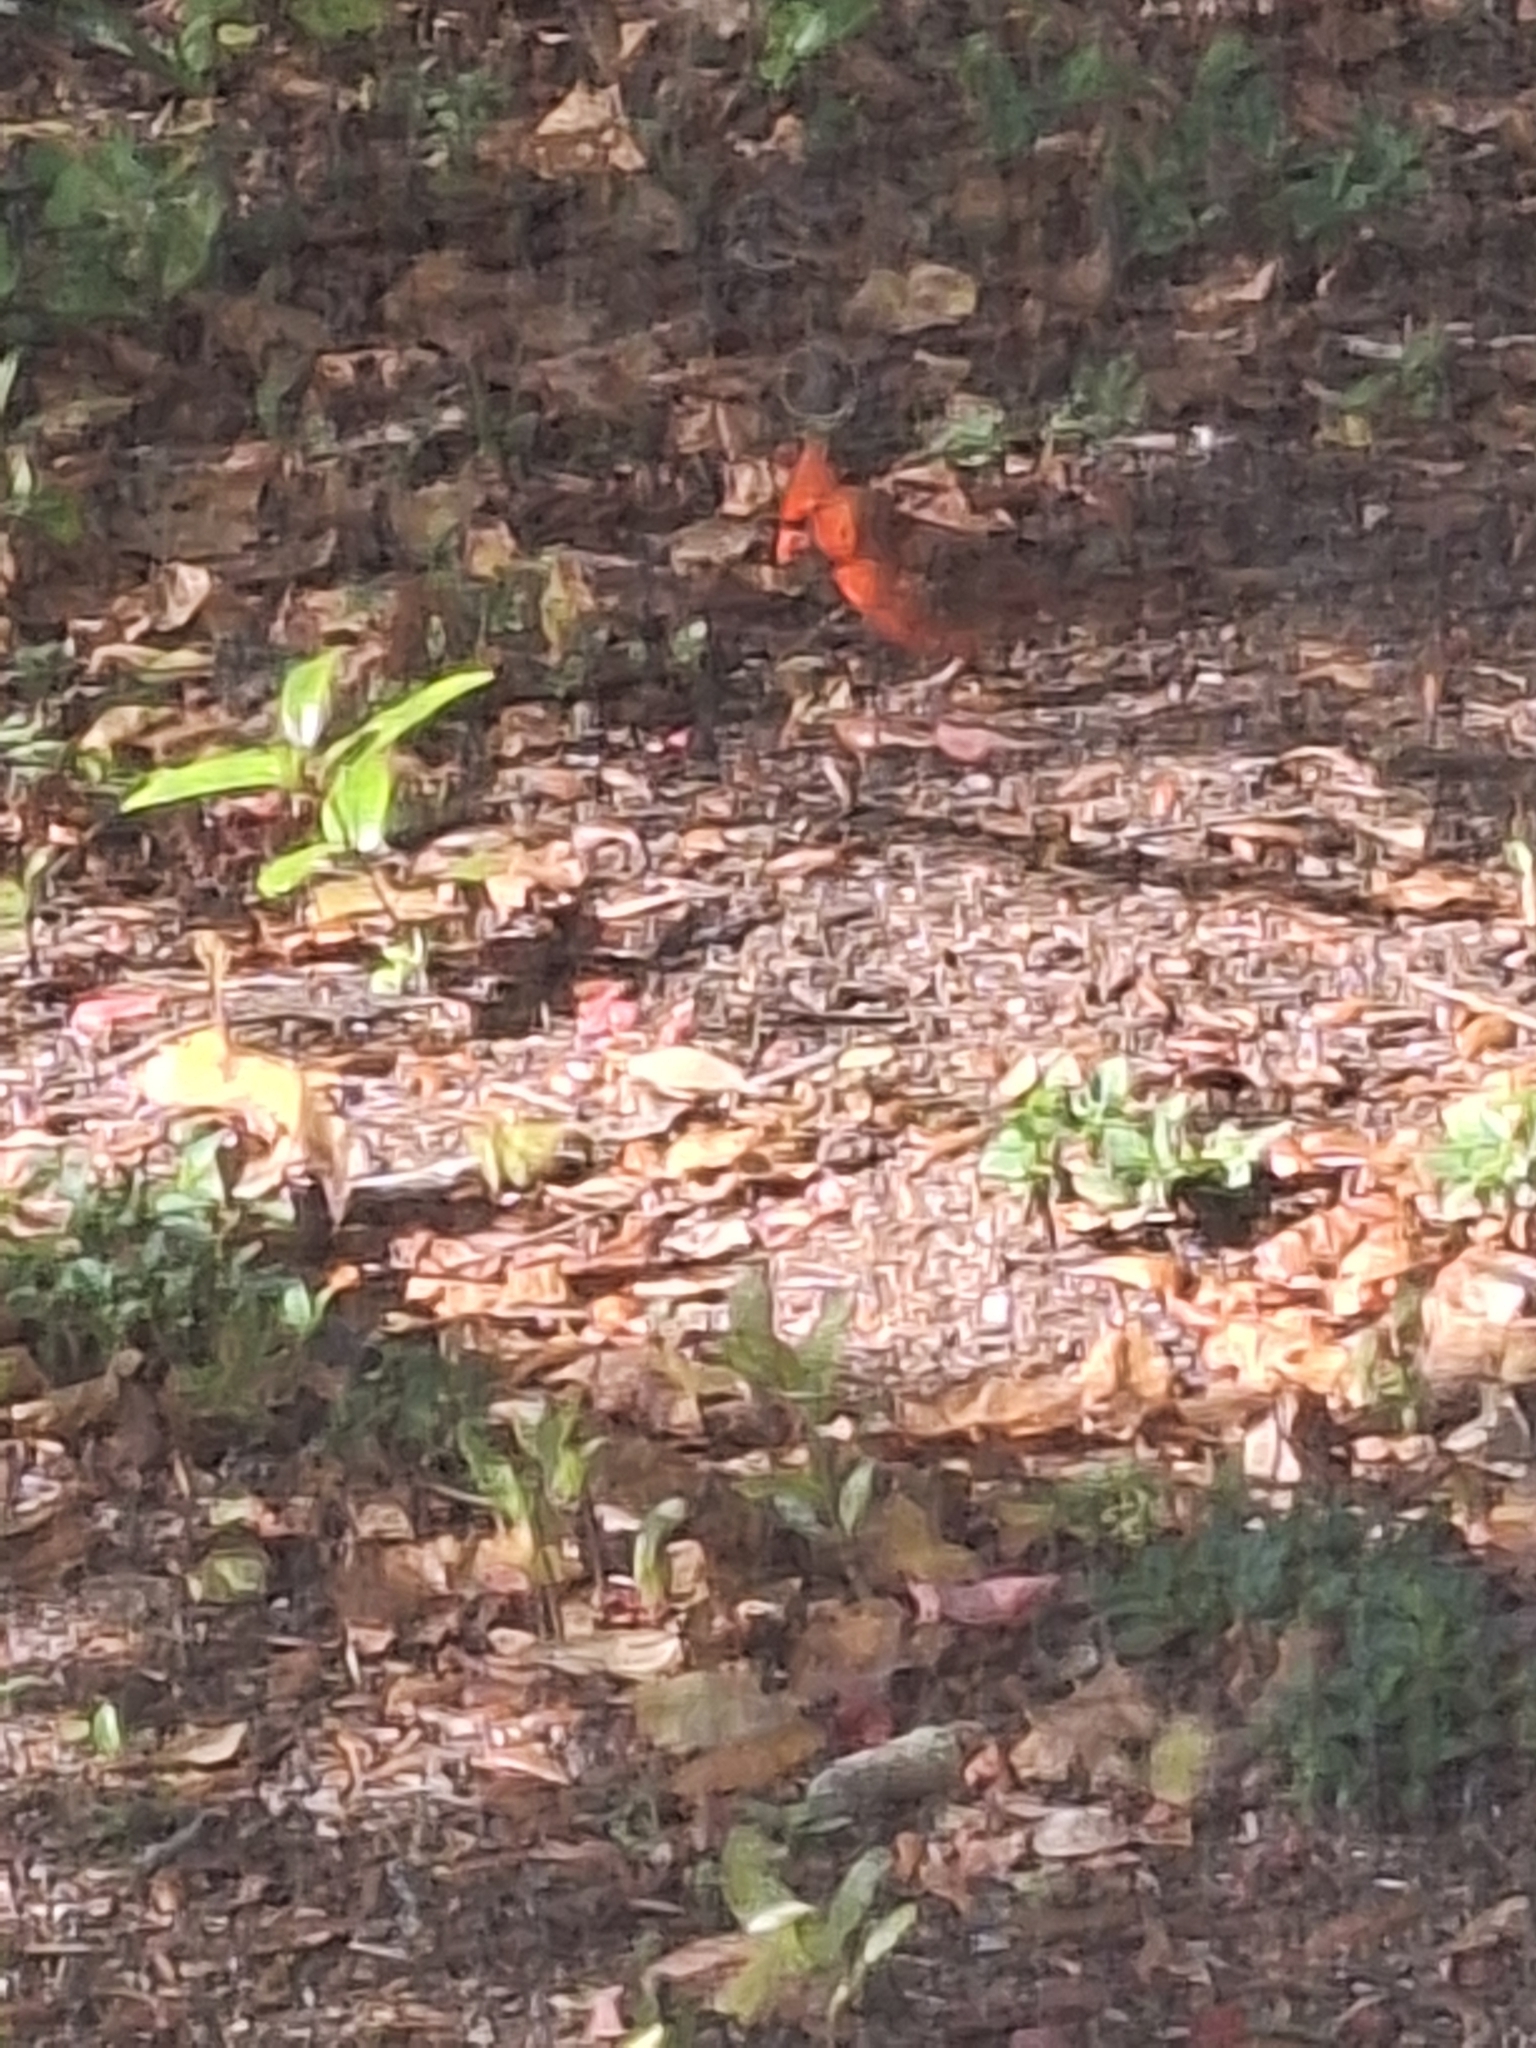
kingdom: Animalia
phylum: Chordata
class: Aves
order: Passeriformes
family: Cardinalidae
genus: Cardinalis
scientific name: Cardinalis cardinalis
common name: Northern cardinal
